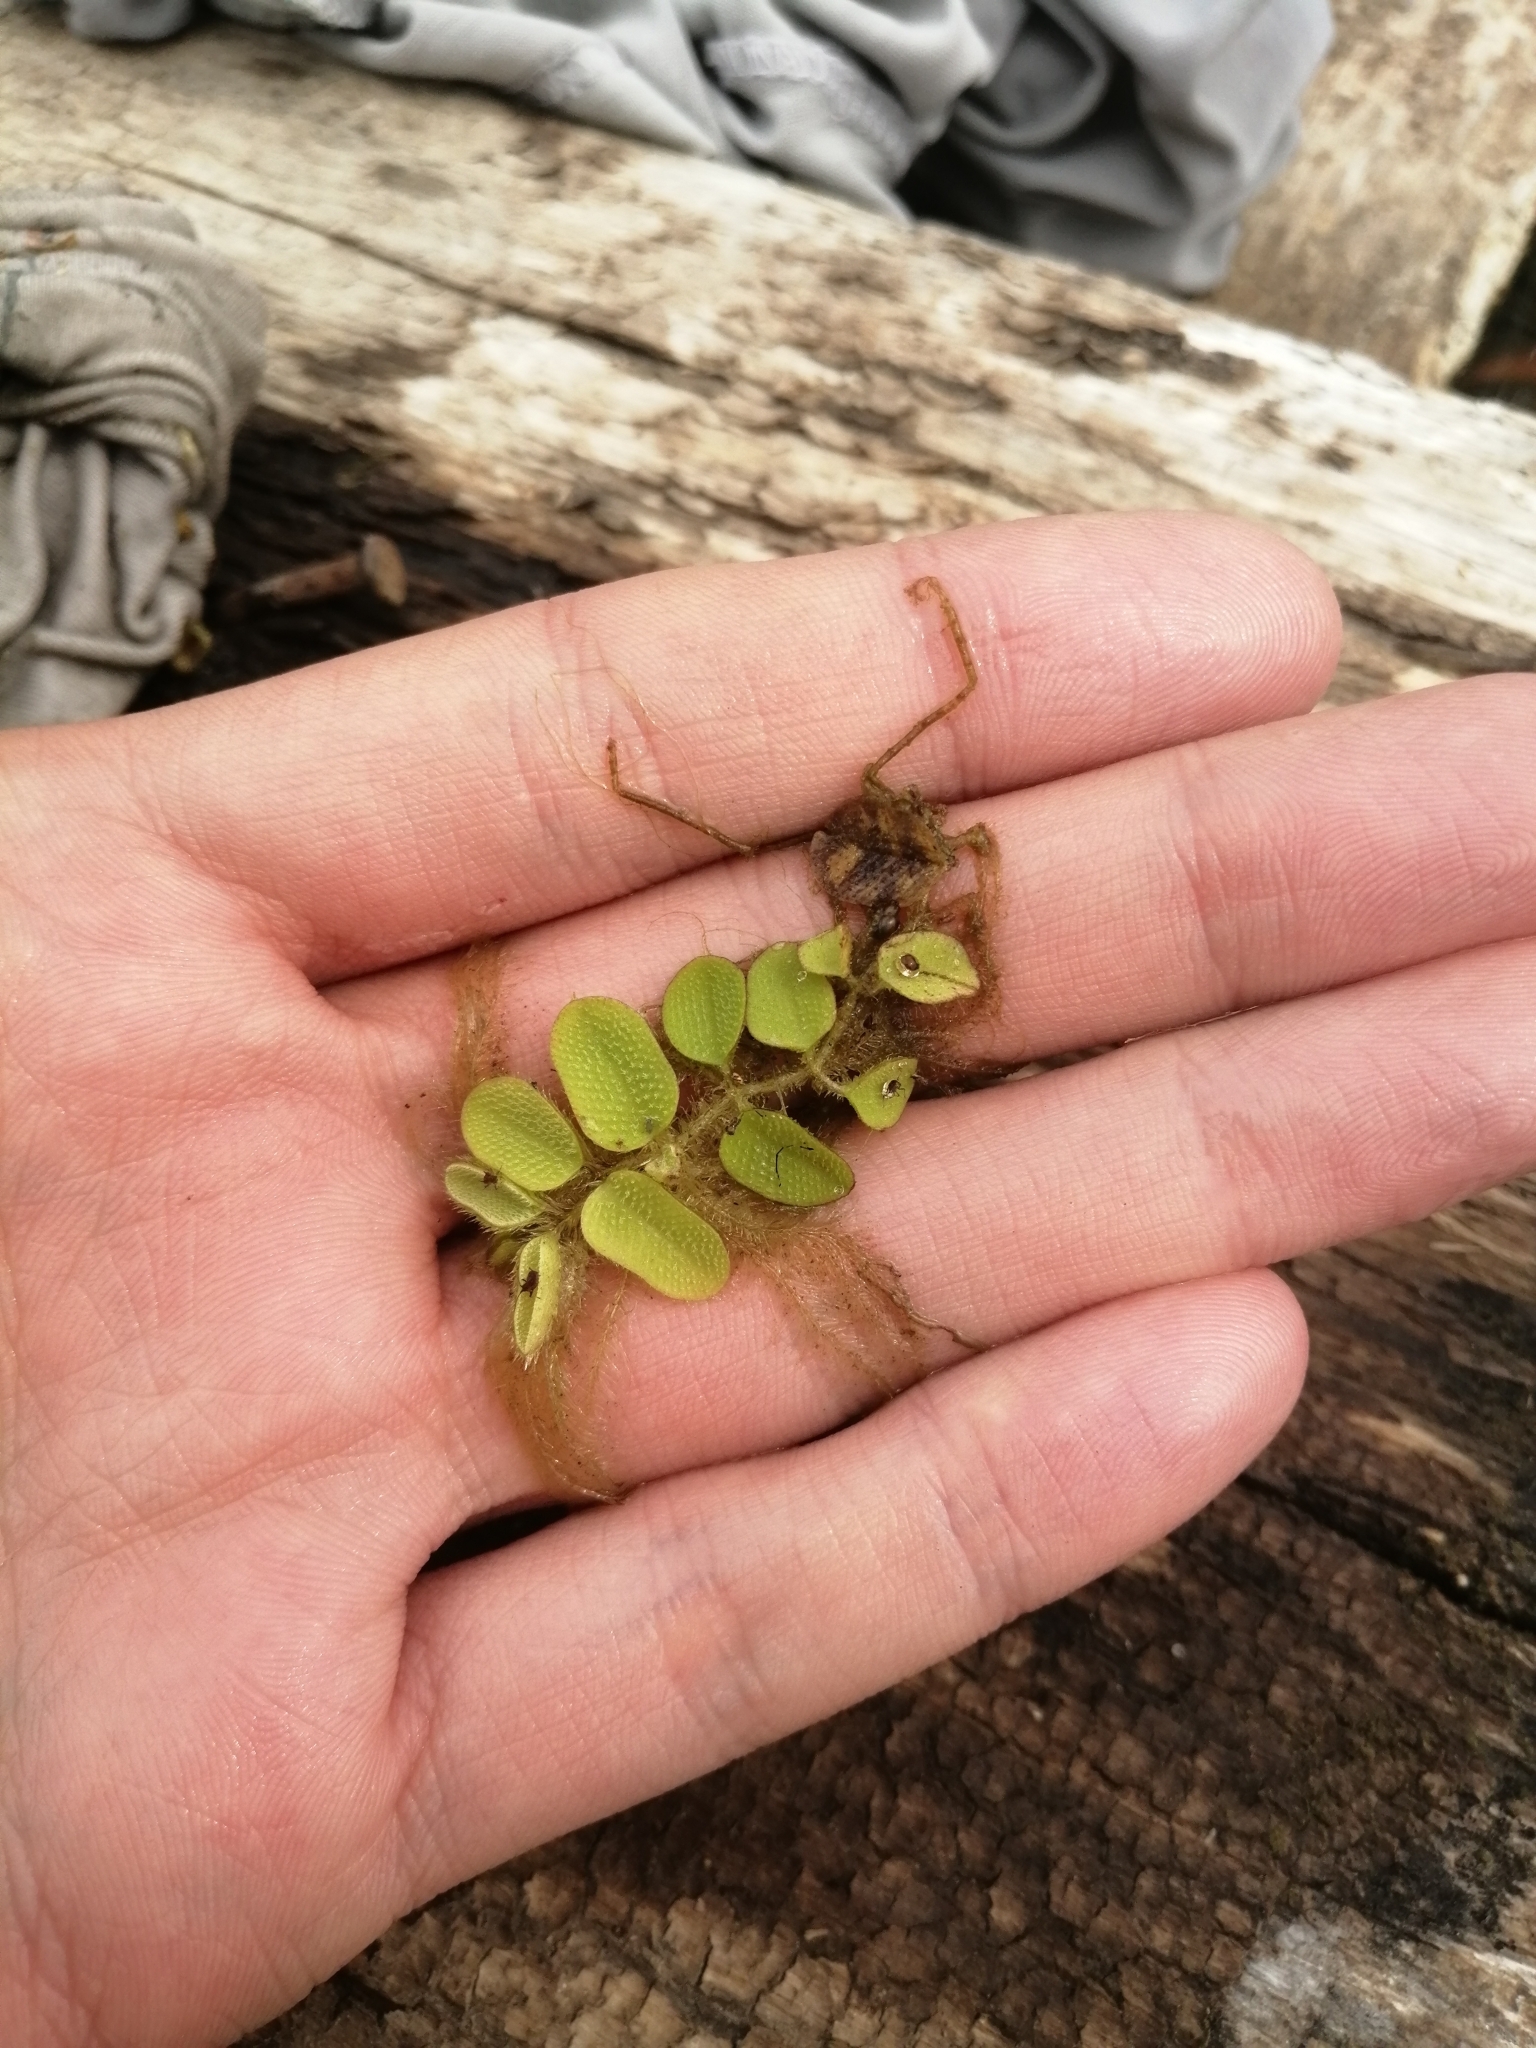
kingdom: Plantae
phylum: Tracheophyta
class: Polypodiopsida
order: Salviniales
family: Salviniaceae
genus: Salvinia
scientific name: Salvinia natans
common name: Floating fern
